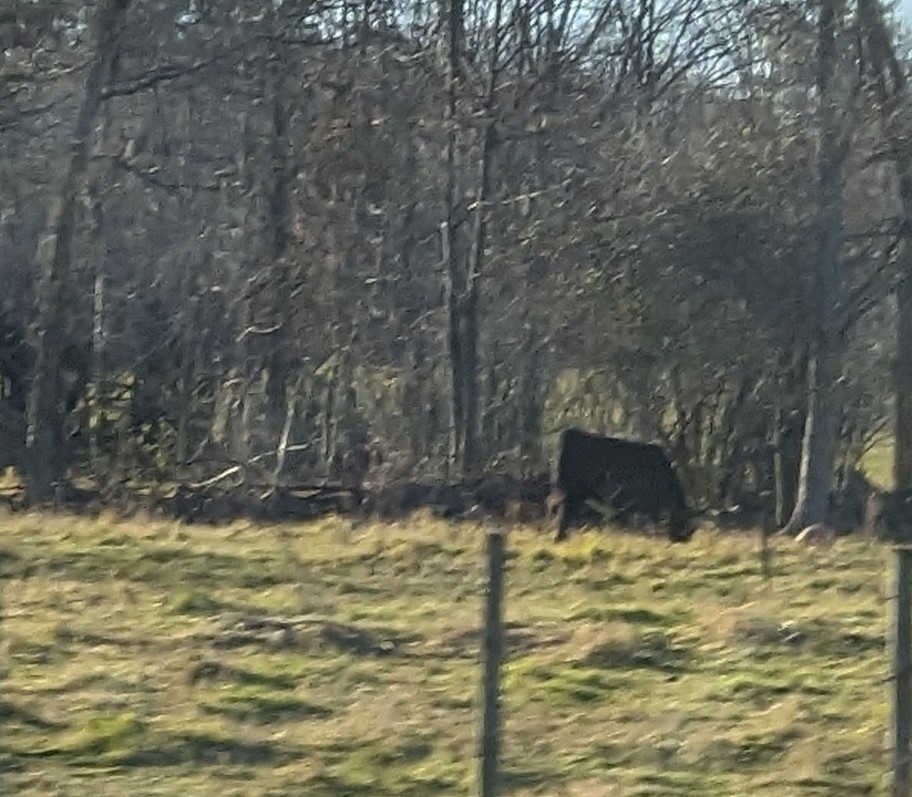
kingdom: Animalia
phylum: Chordata
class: Mammalia
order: Artiodactyla
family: Bovidae
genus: Bos
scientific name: Bos taurus
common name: Domesticated cattle
